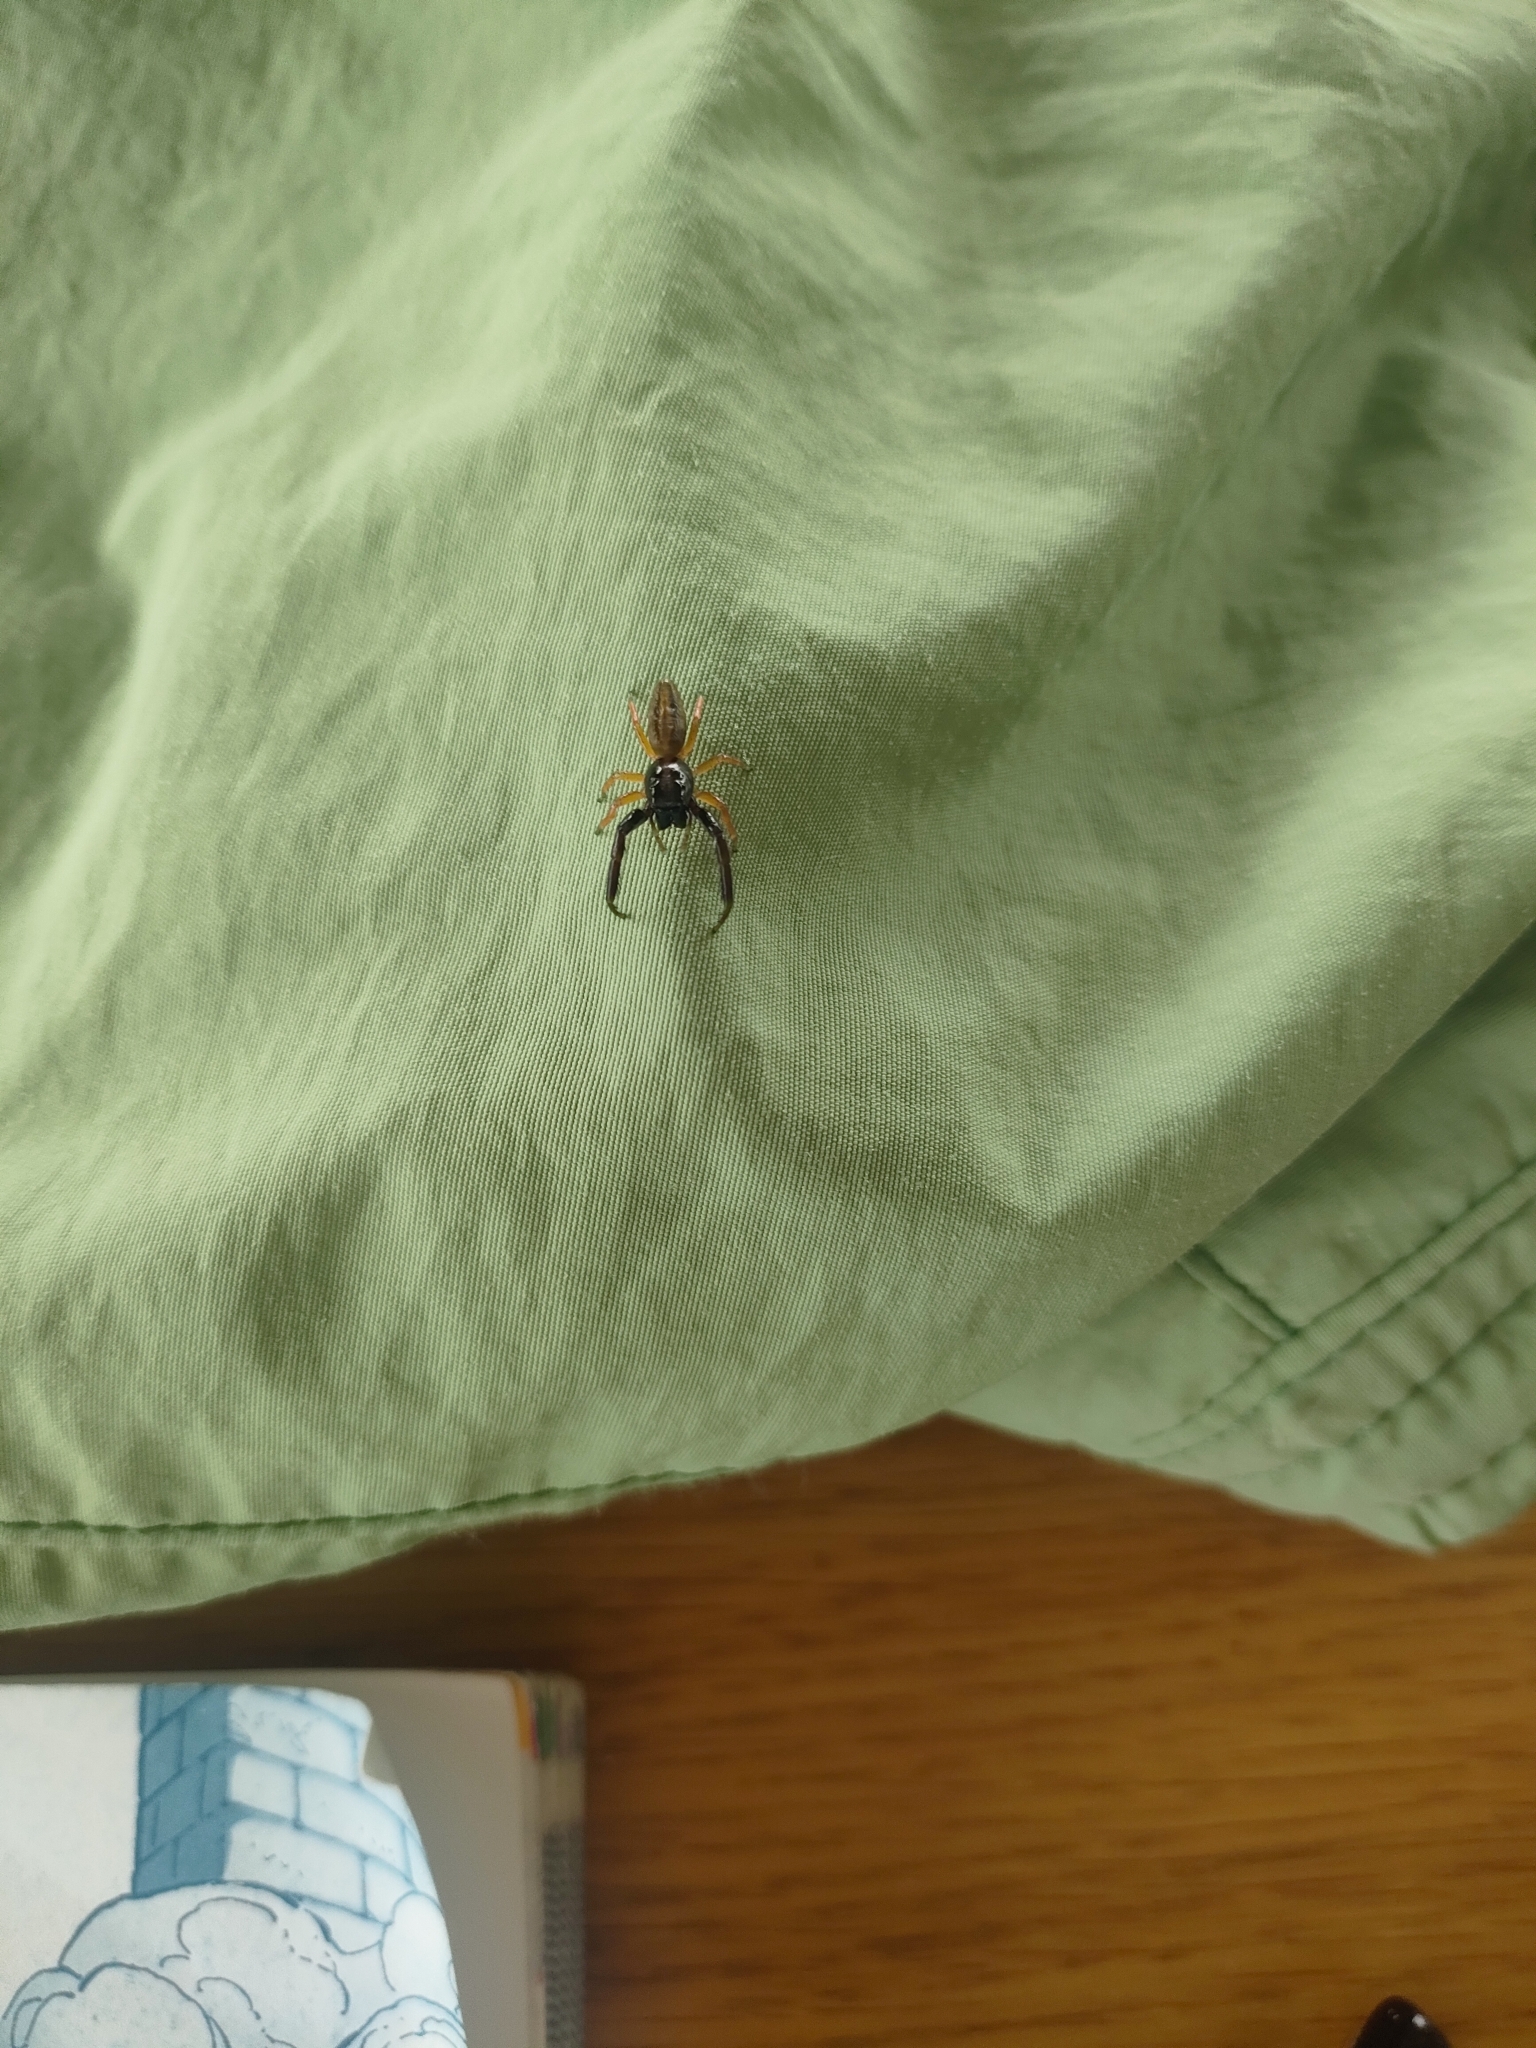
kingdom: Animalia
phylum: Arthropoda
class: Arachnida
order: Araneae
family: Salticidae
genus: Trite
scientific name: Trite planiceps
